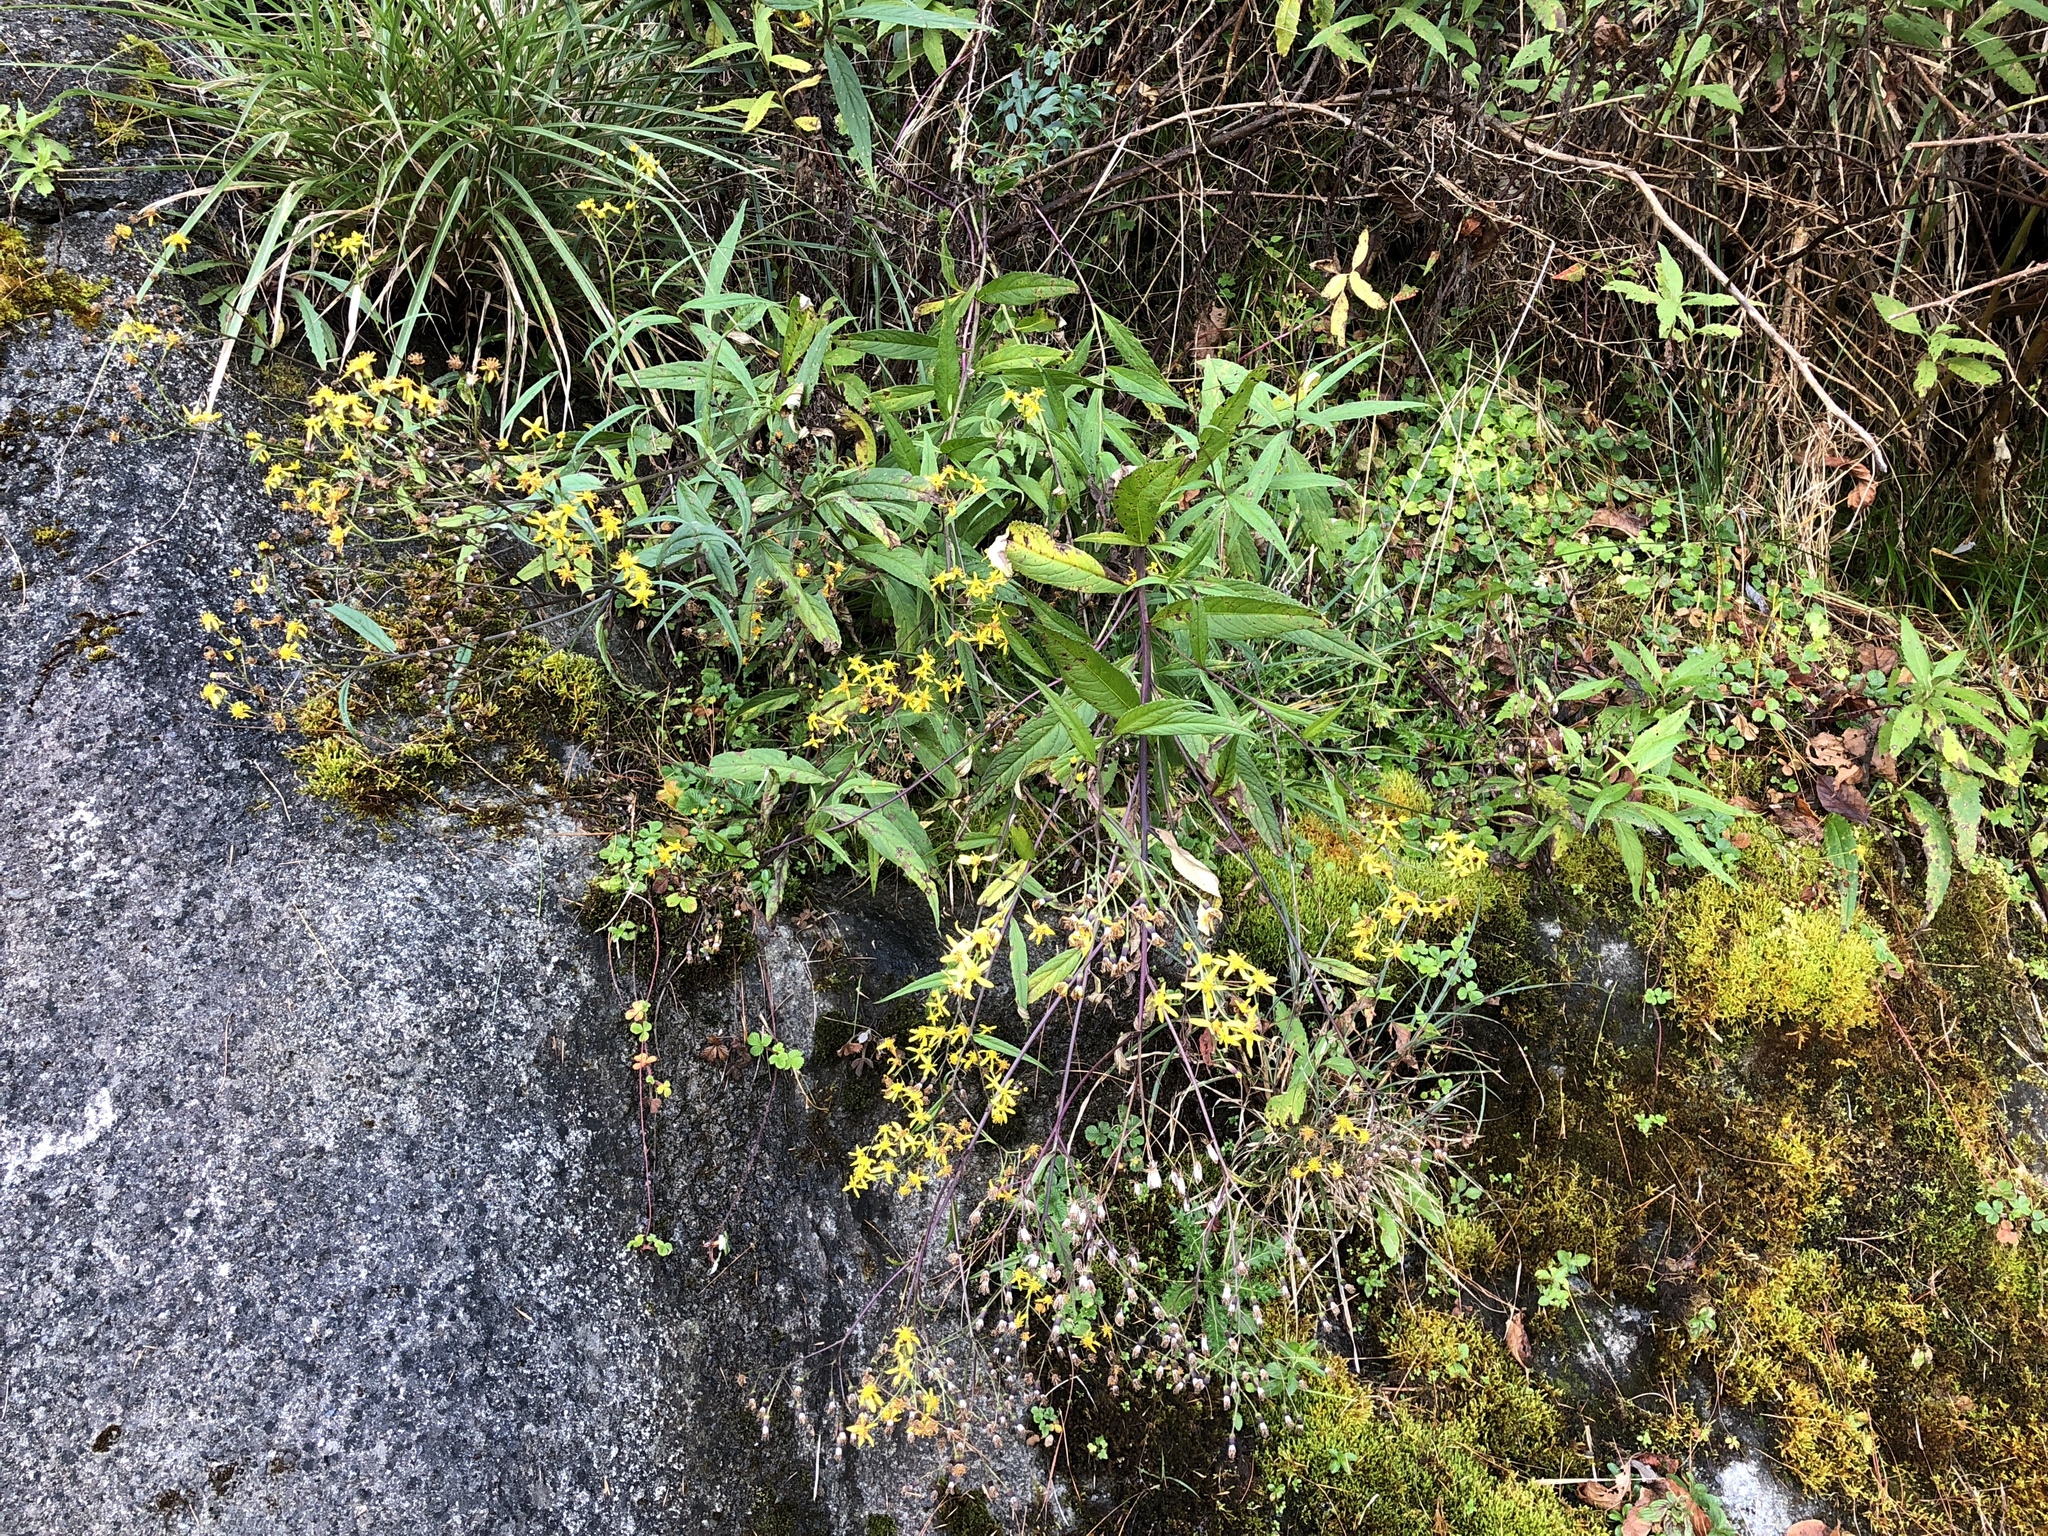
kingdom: Plantae
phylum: Tracheophyta
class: Magnoliopsida
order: Asterales
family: Asteraceae
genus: Jacobaea
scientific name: Jacobaea morrisonensis
